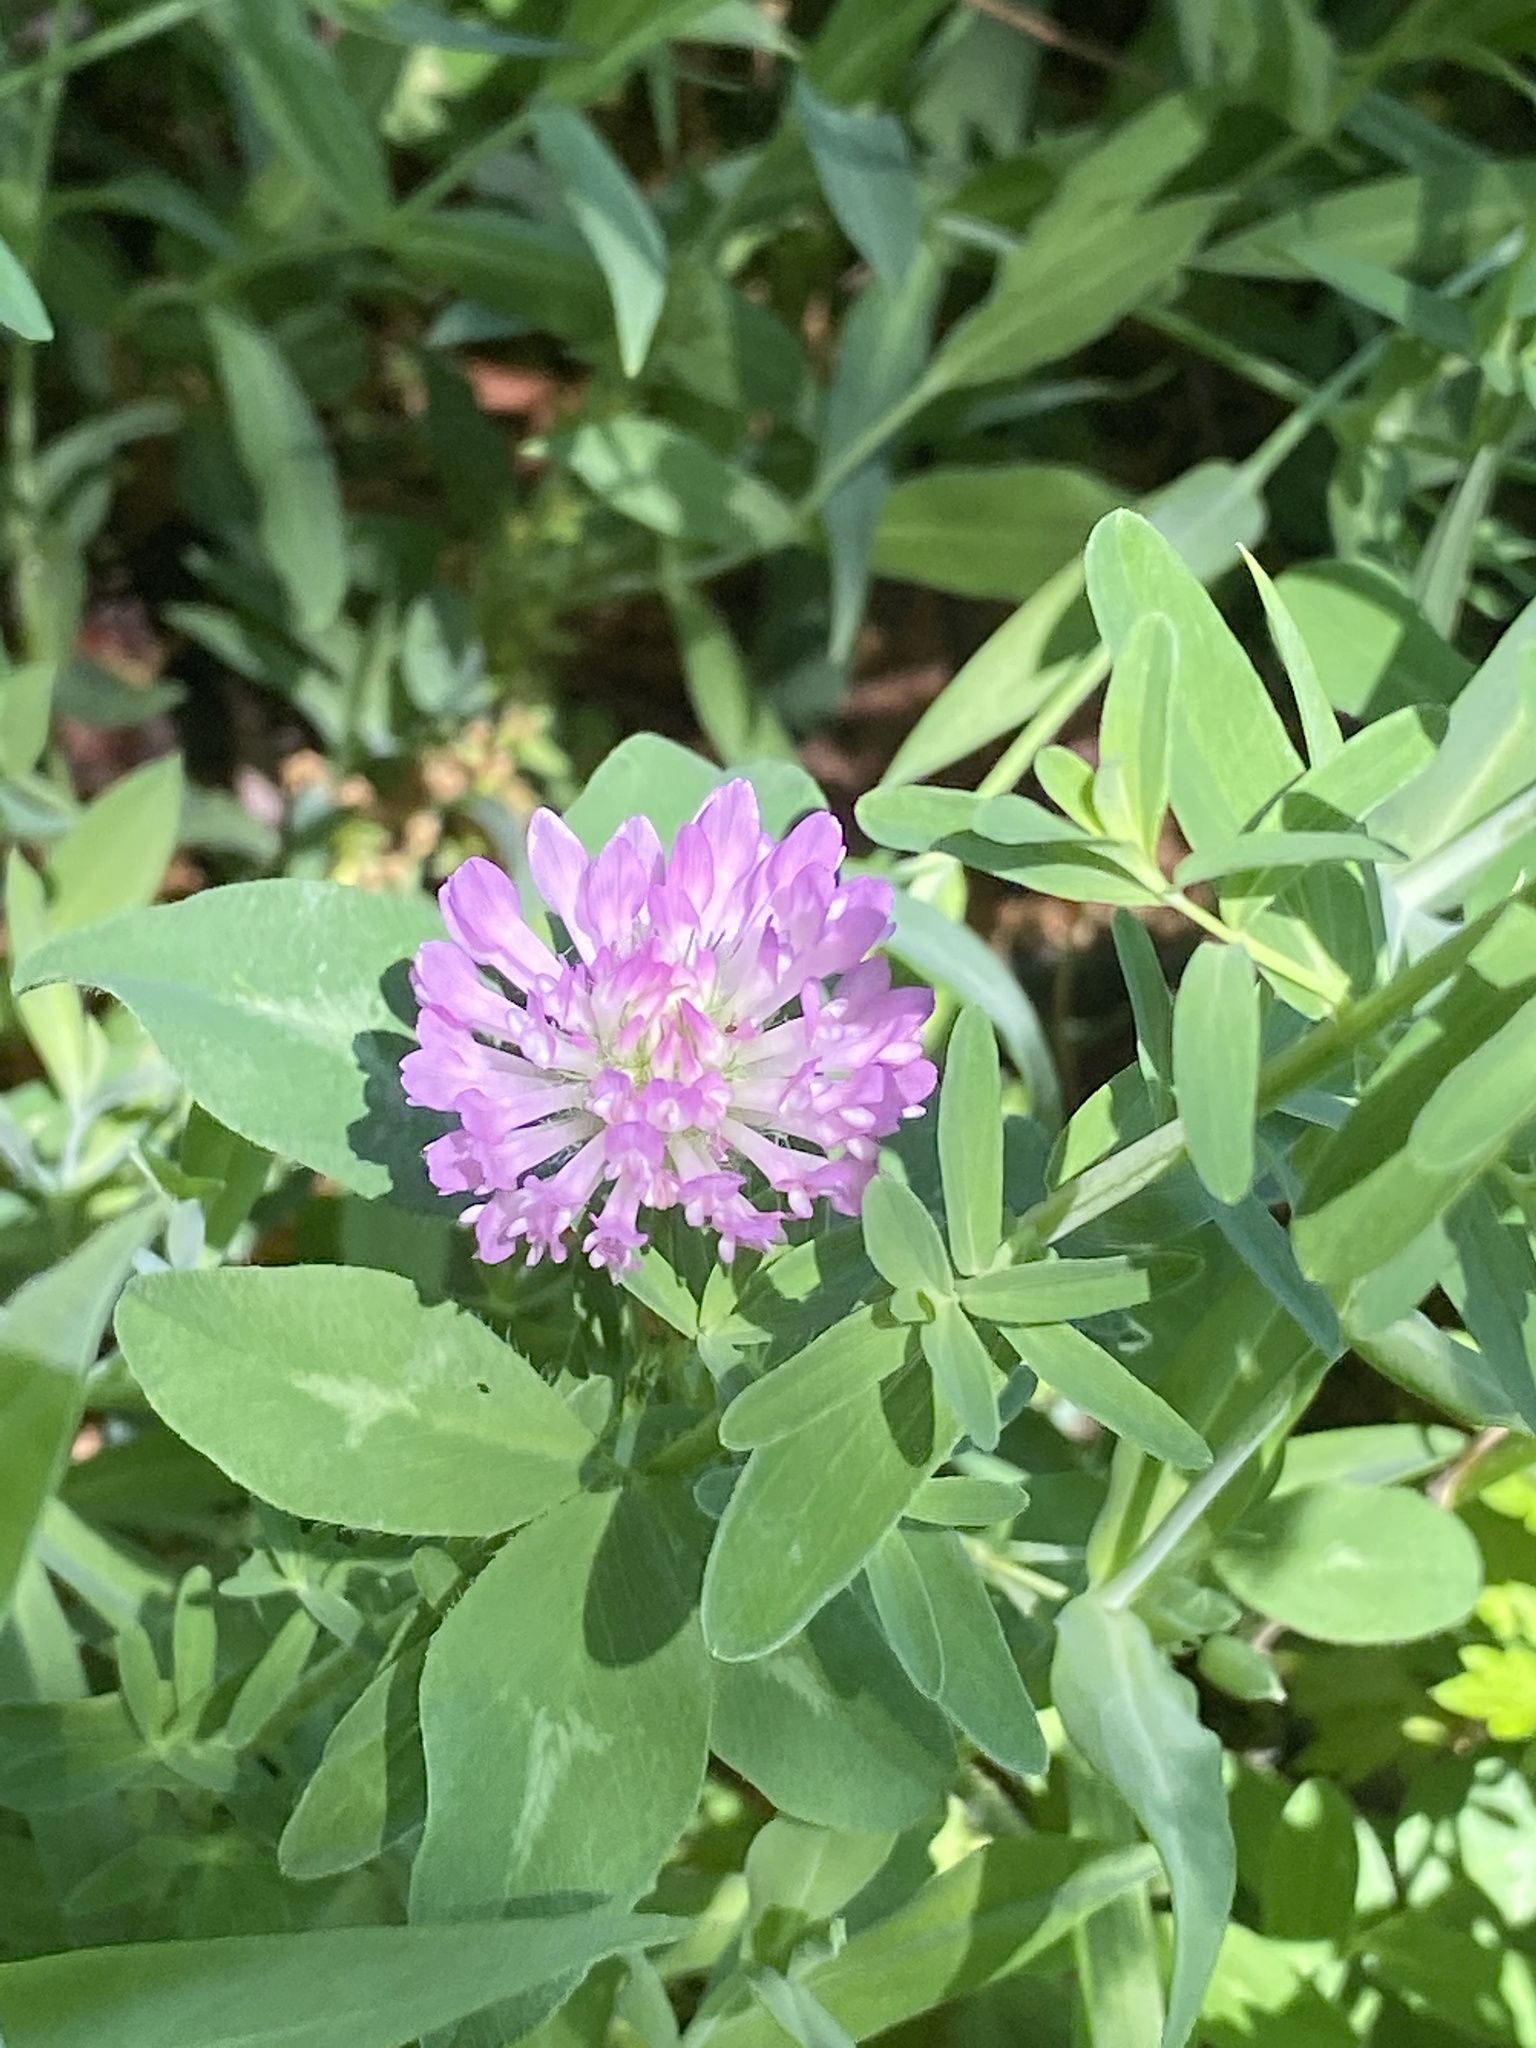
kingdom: Plantae
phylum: Tracheophyta
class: Magnoliopsida
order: Fabales
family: Fabaceae
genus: Trifolium
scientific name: Trifolium pratense
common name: Red clover
